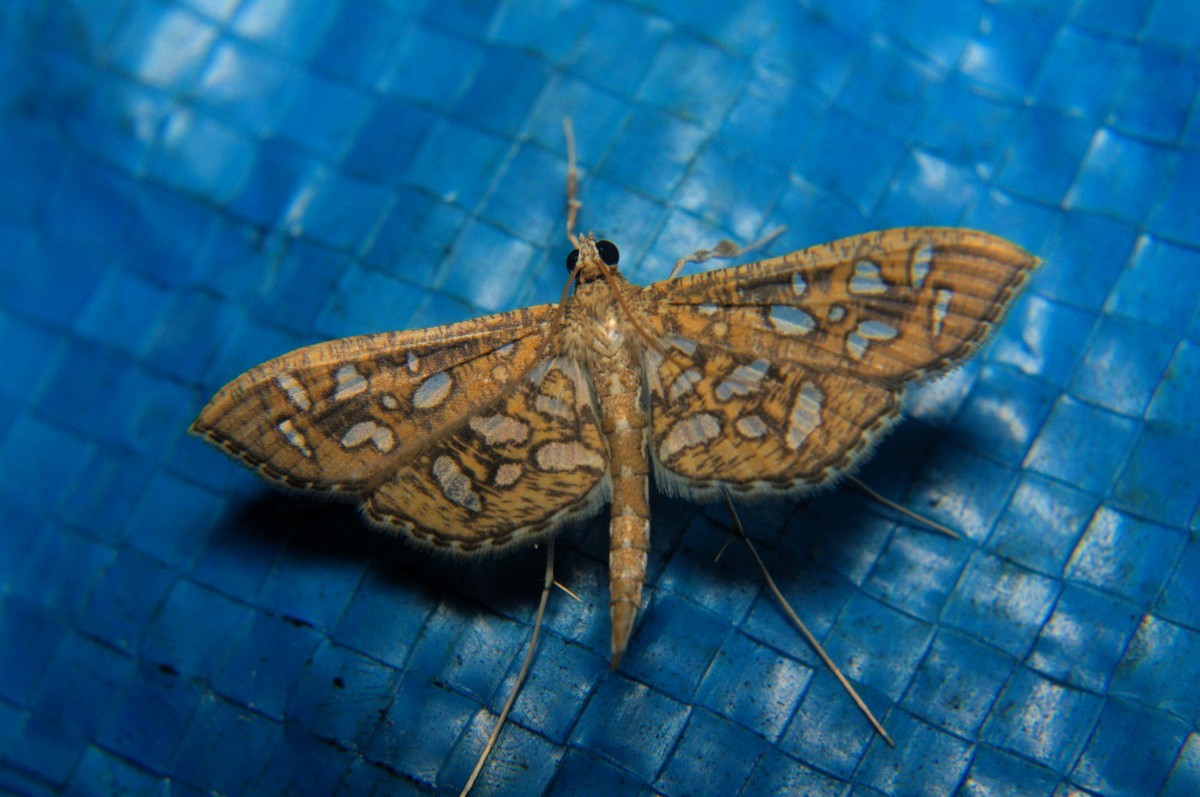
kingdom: Animalia
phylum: Arthropoda
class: Insecta
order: Lepidoptera
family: Crambidae
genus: Nausinoe
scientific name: Nausinoe geometralis
